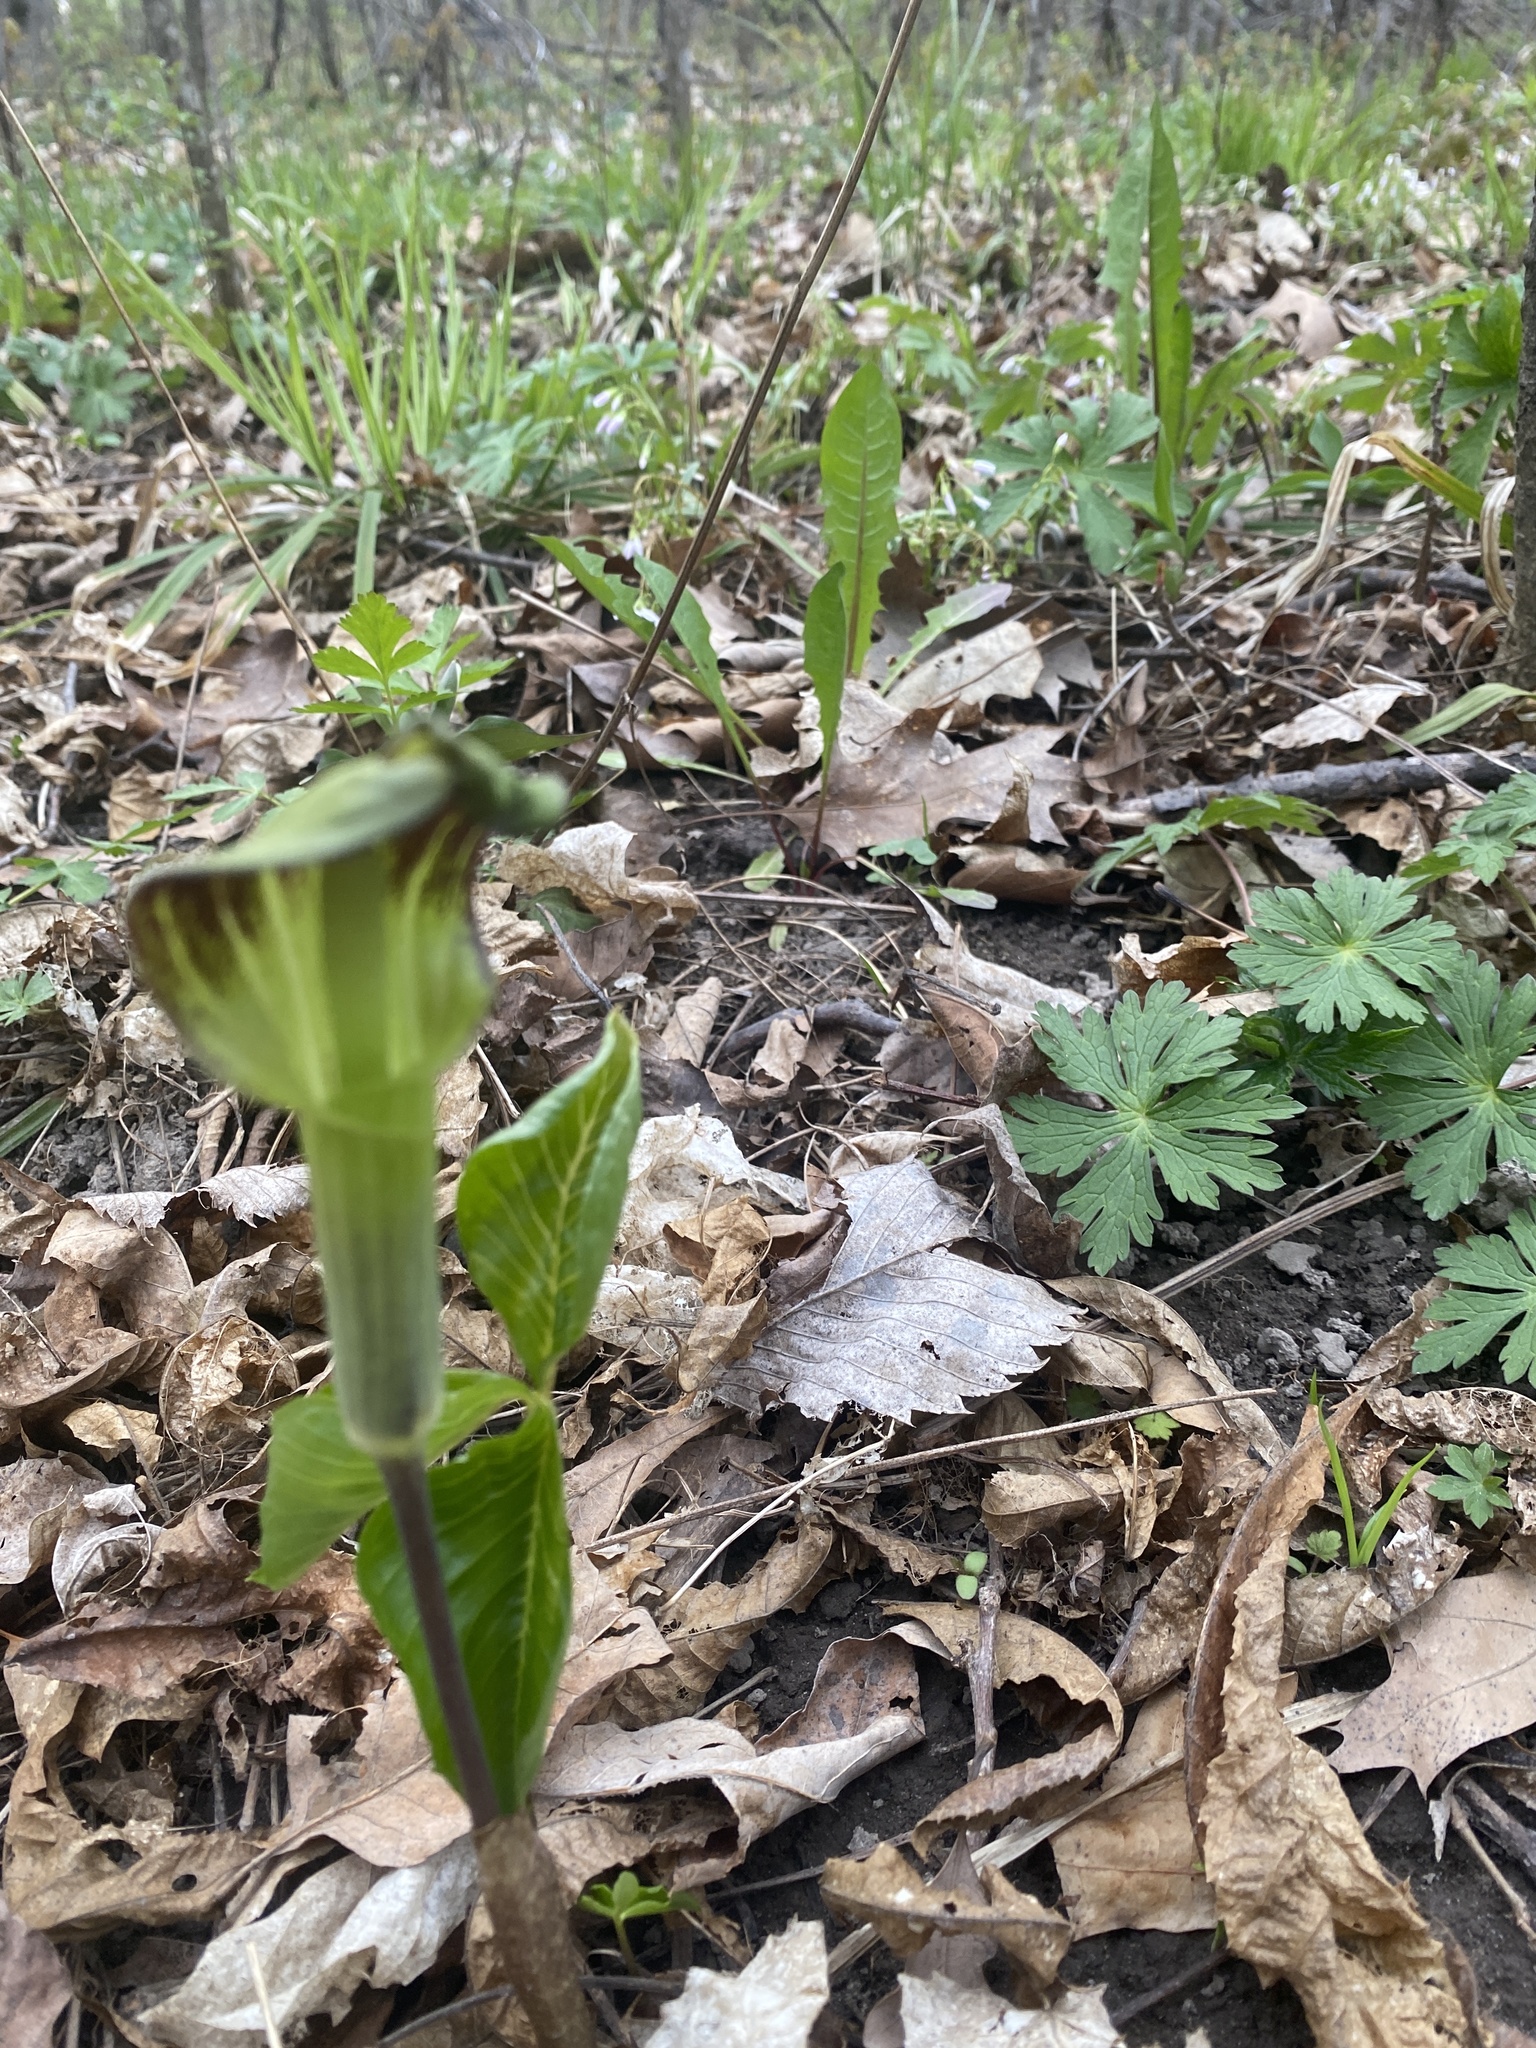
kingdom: Plantae
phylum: Tracheophyta
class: Liliopsida
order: Alismatales
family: Araceae
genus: Arisaema
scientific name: Arisaema triphyllum
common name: Jack-in-the-pulpit
